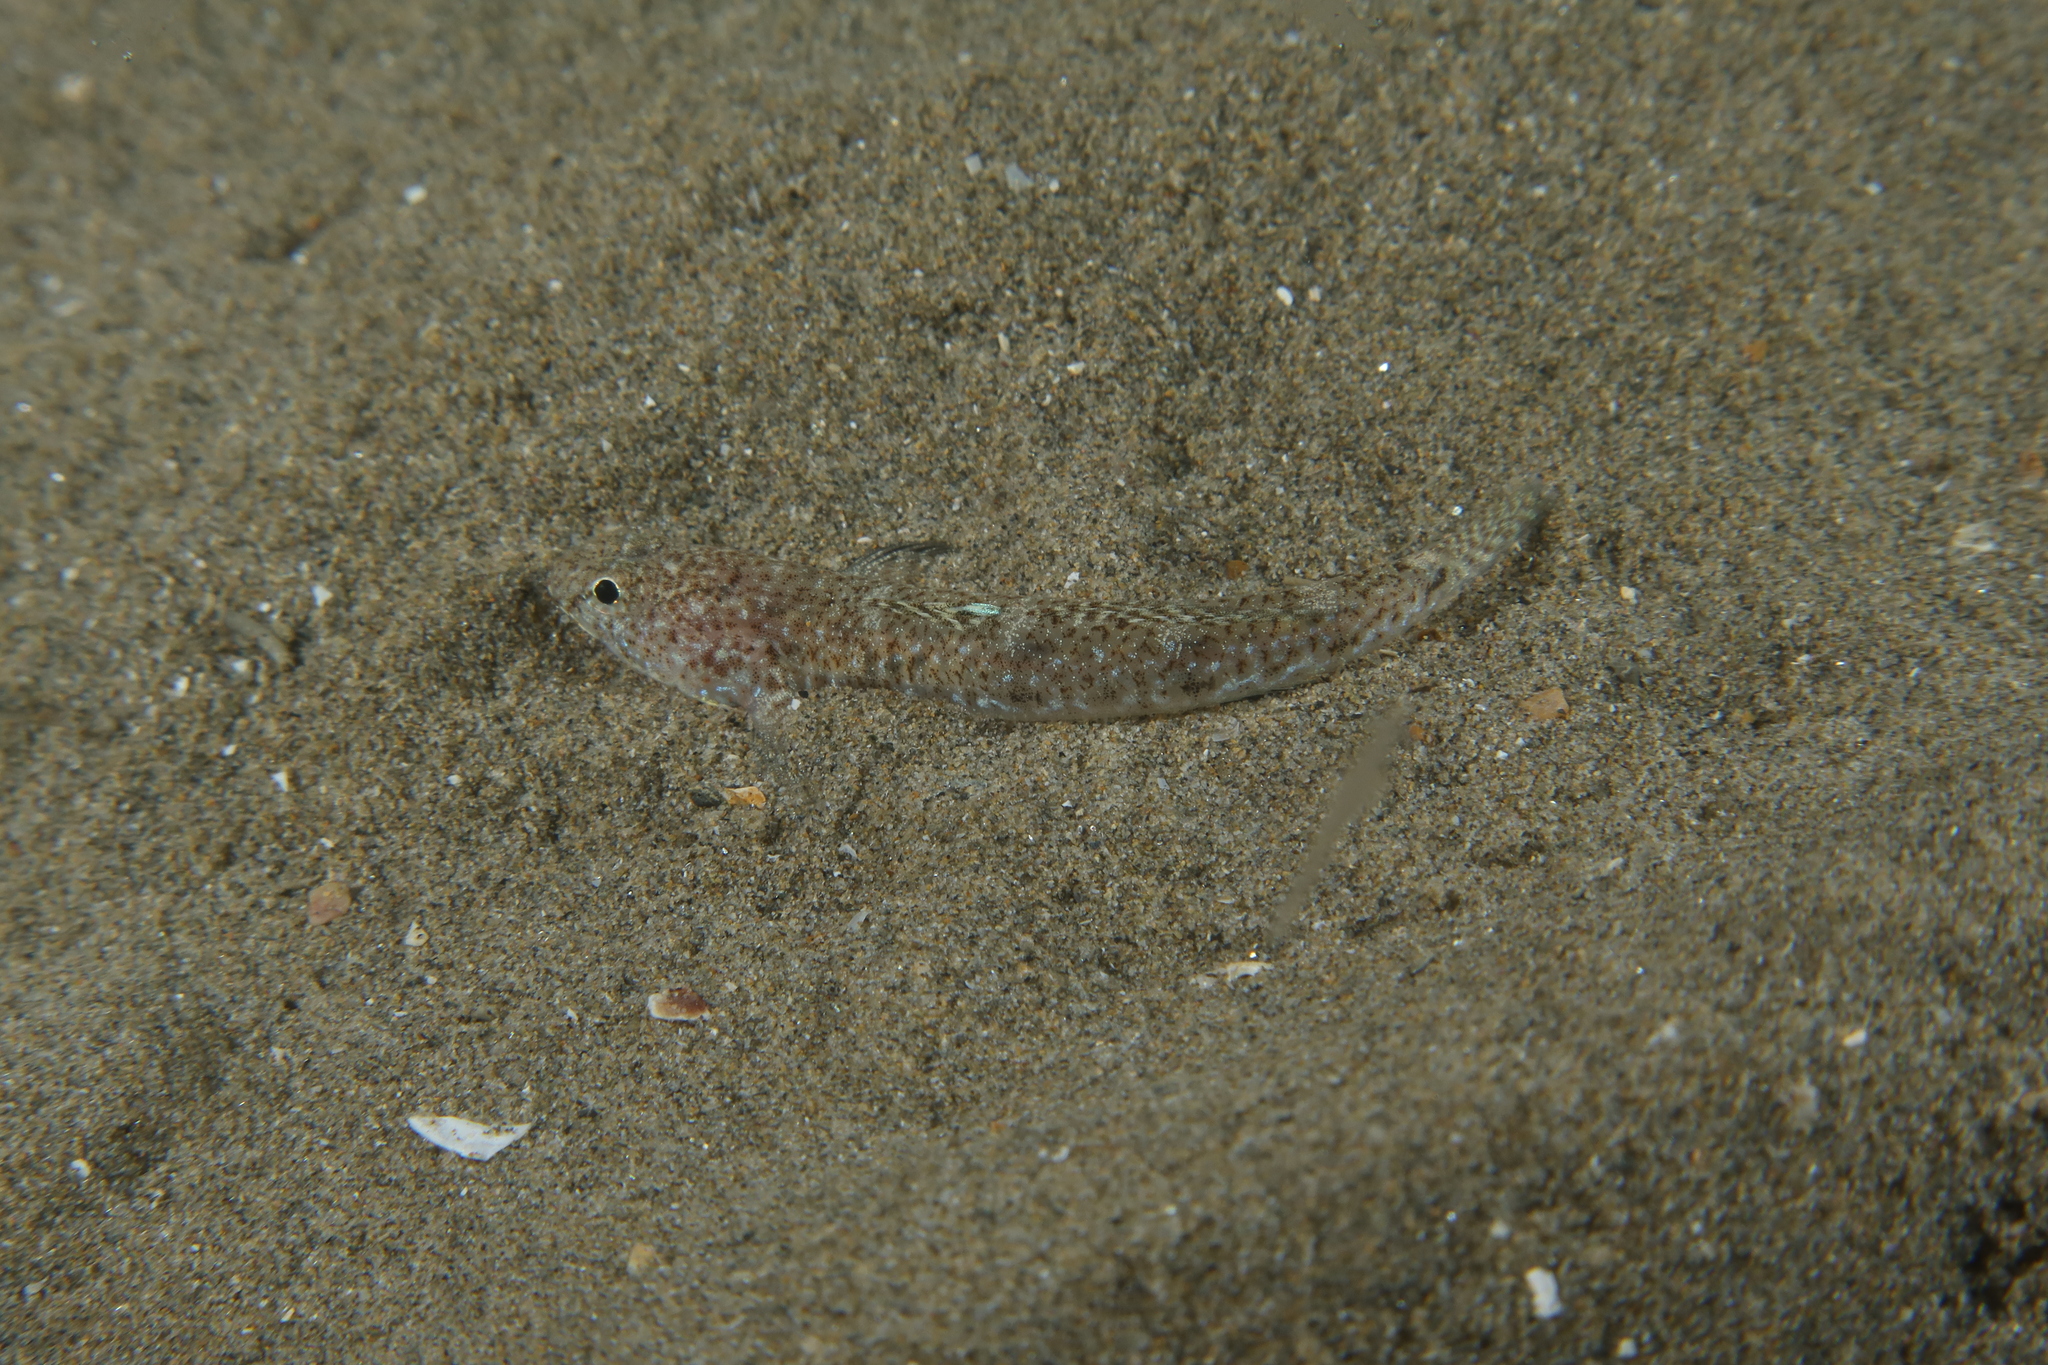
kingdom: Animalia
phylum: Chordata
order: Perciformes
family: Gobiidae
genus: Pomatoschistus
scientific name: Pomatoschistus marmoratus
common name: Marbled goby
